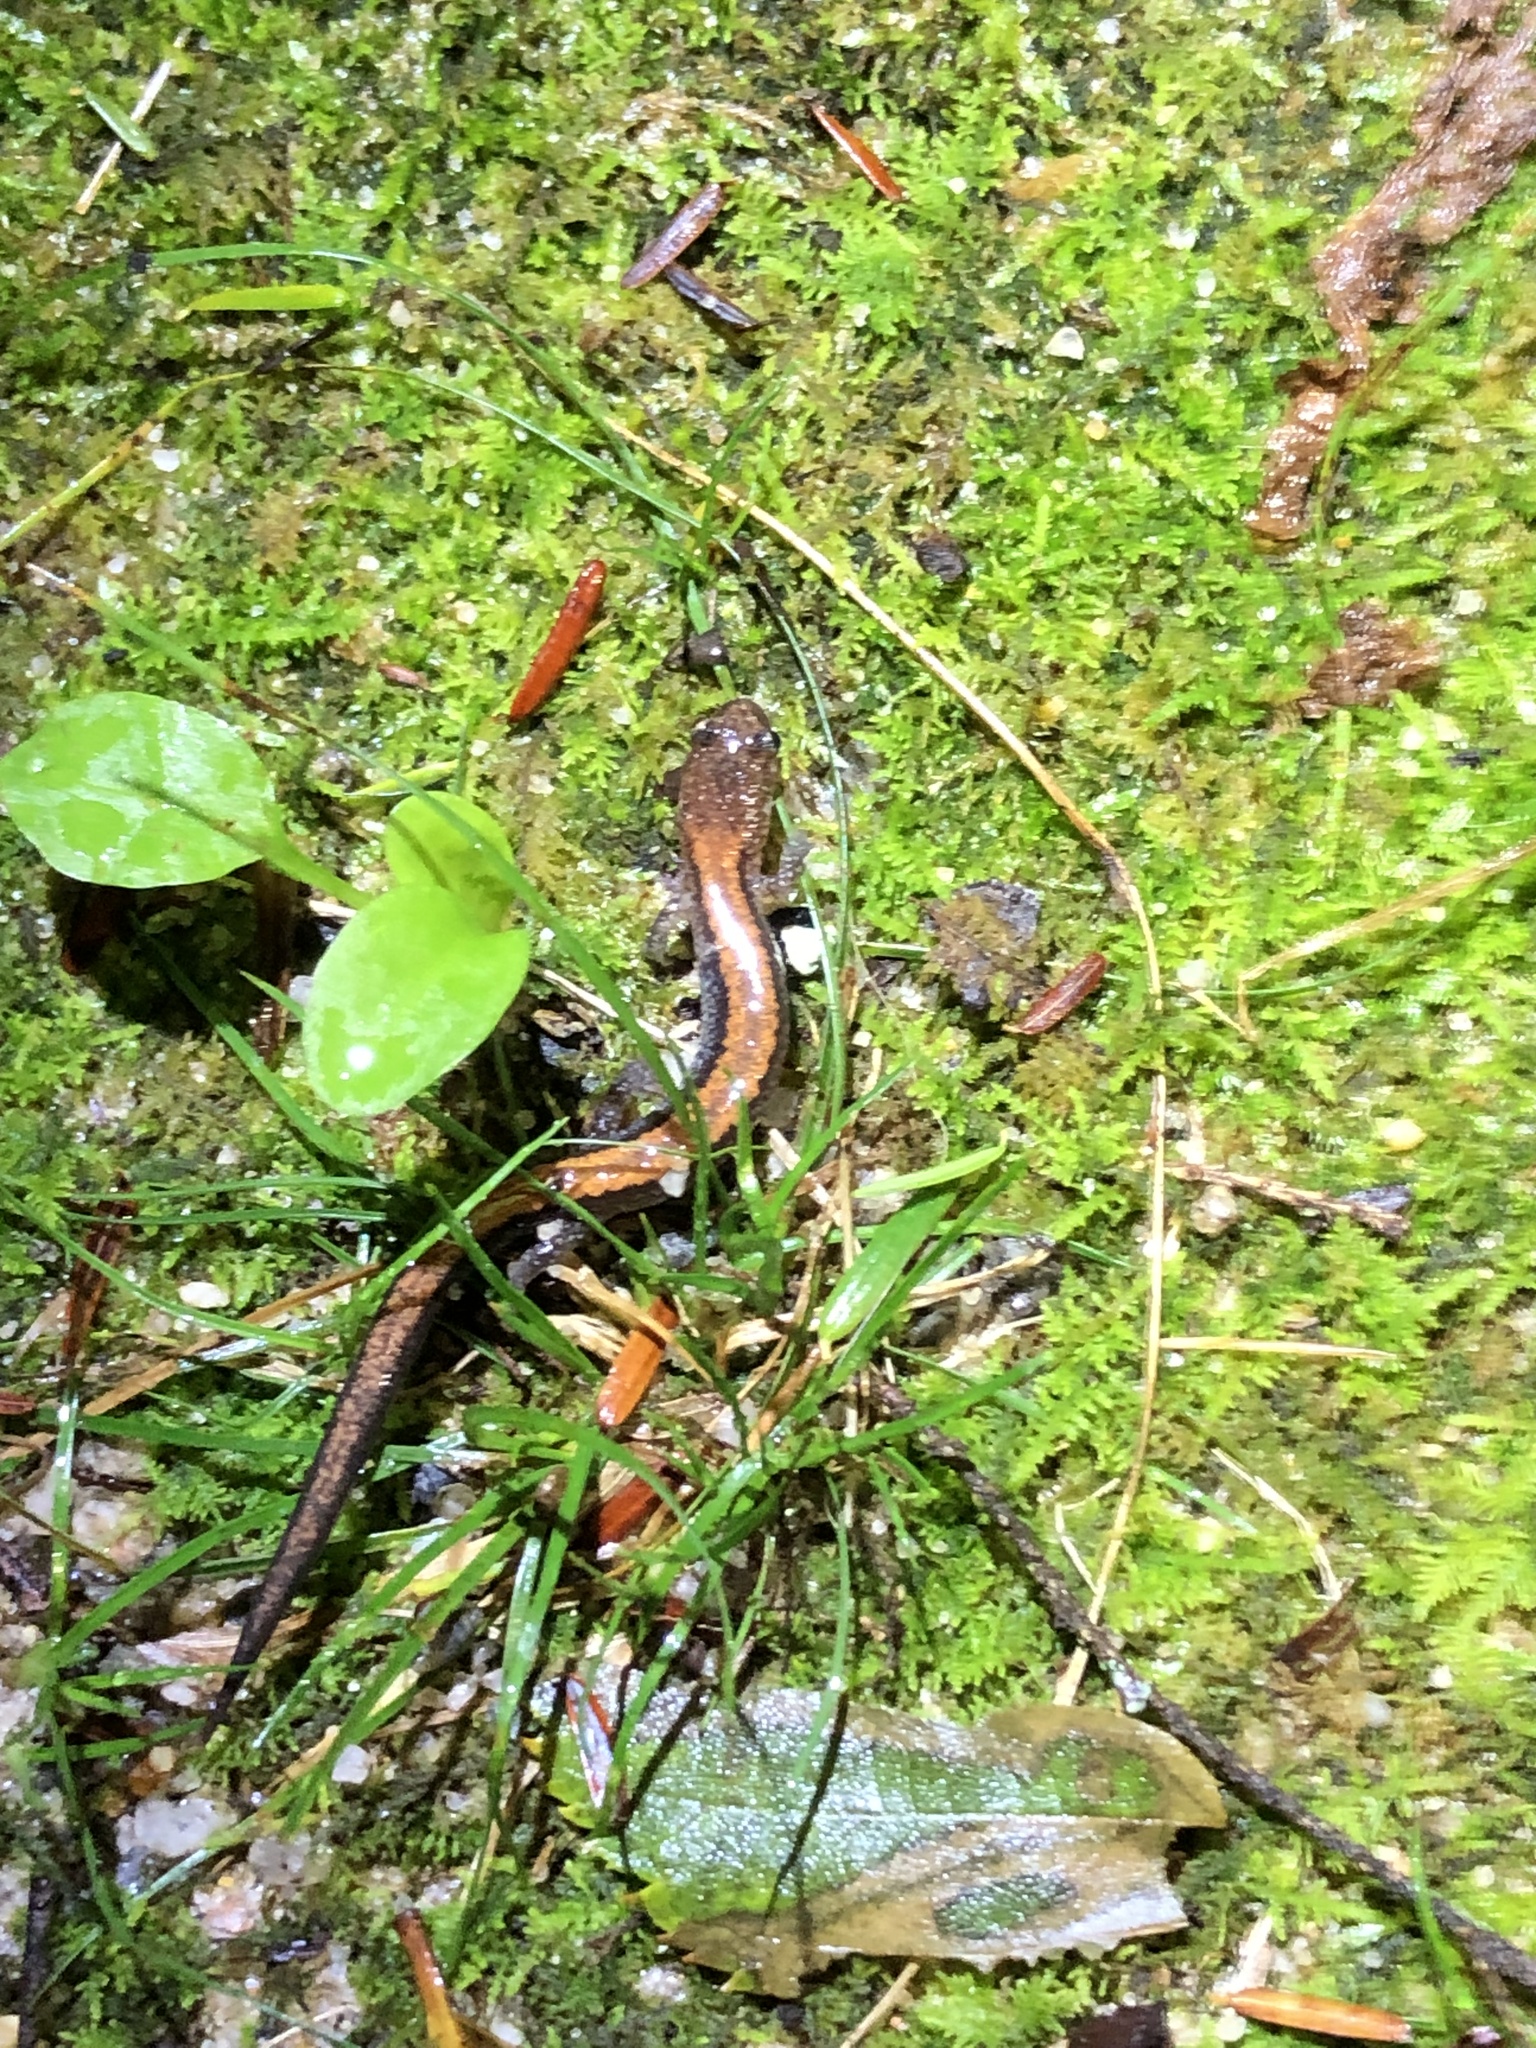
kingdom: Animalia
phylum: Chordata
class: Amphibia
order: Caudata
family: Plethodontidae
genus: Plethodon
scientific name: Plethodon cinereus
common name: Redback salamander
